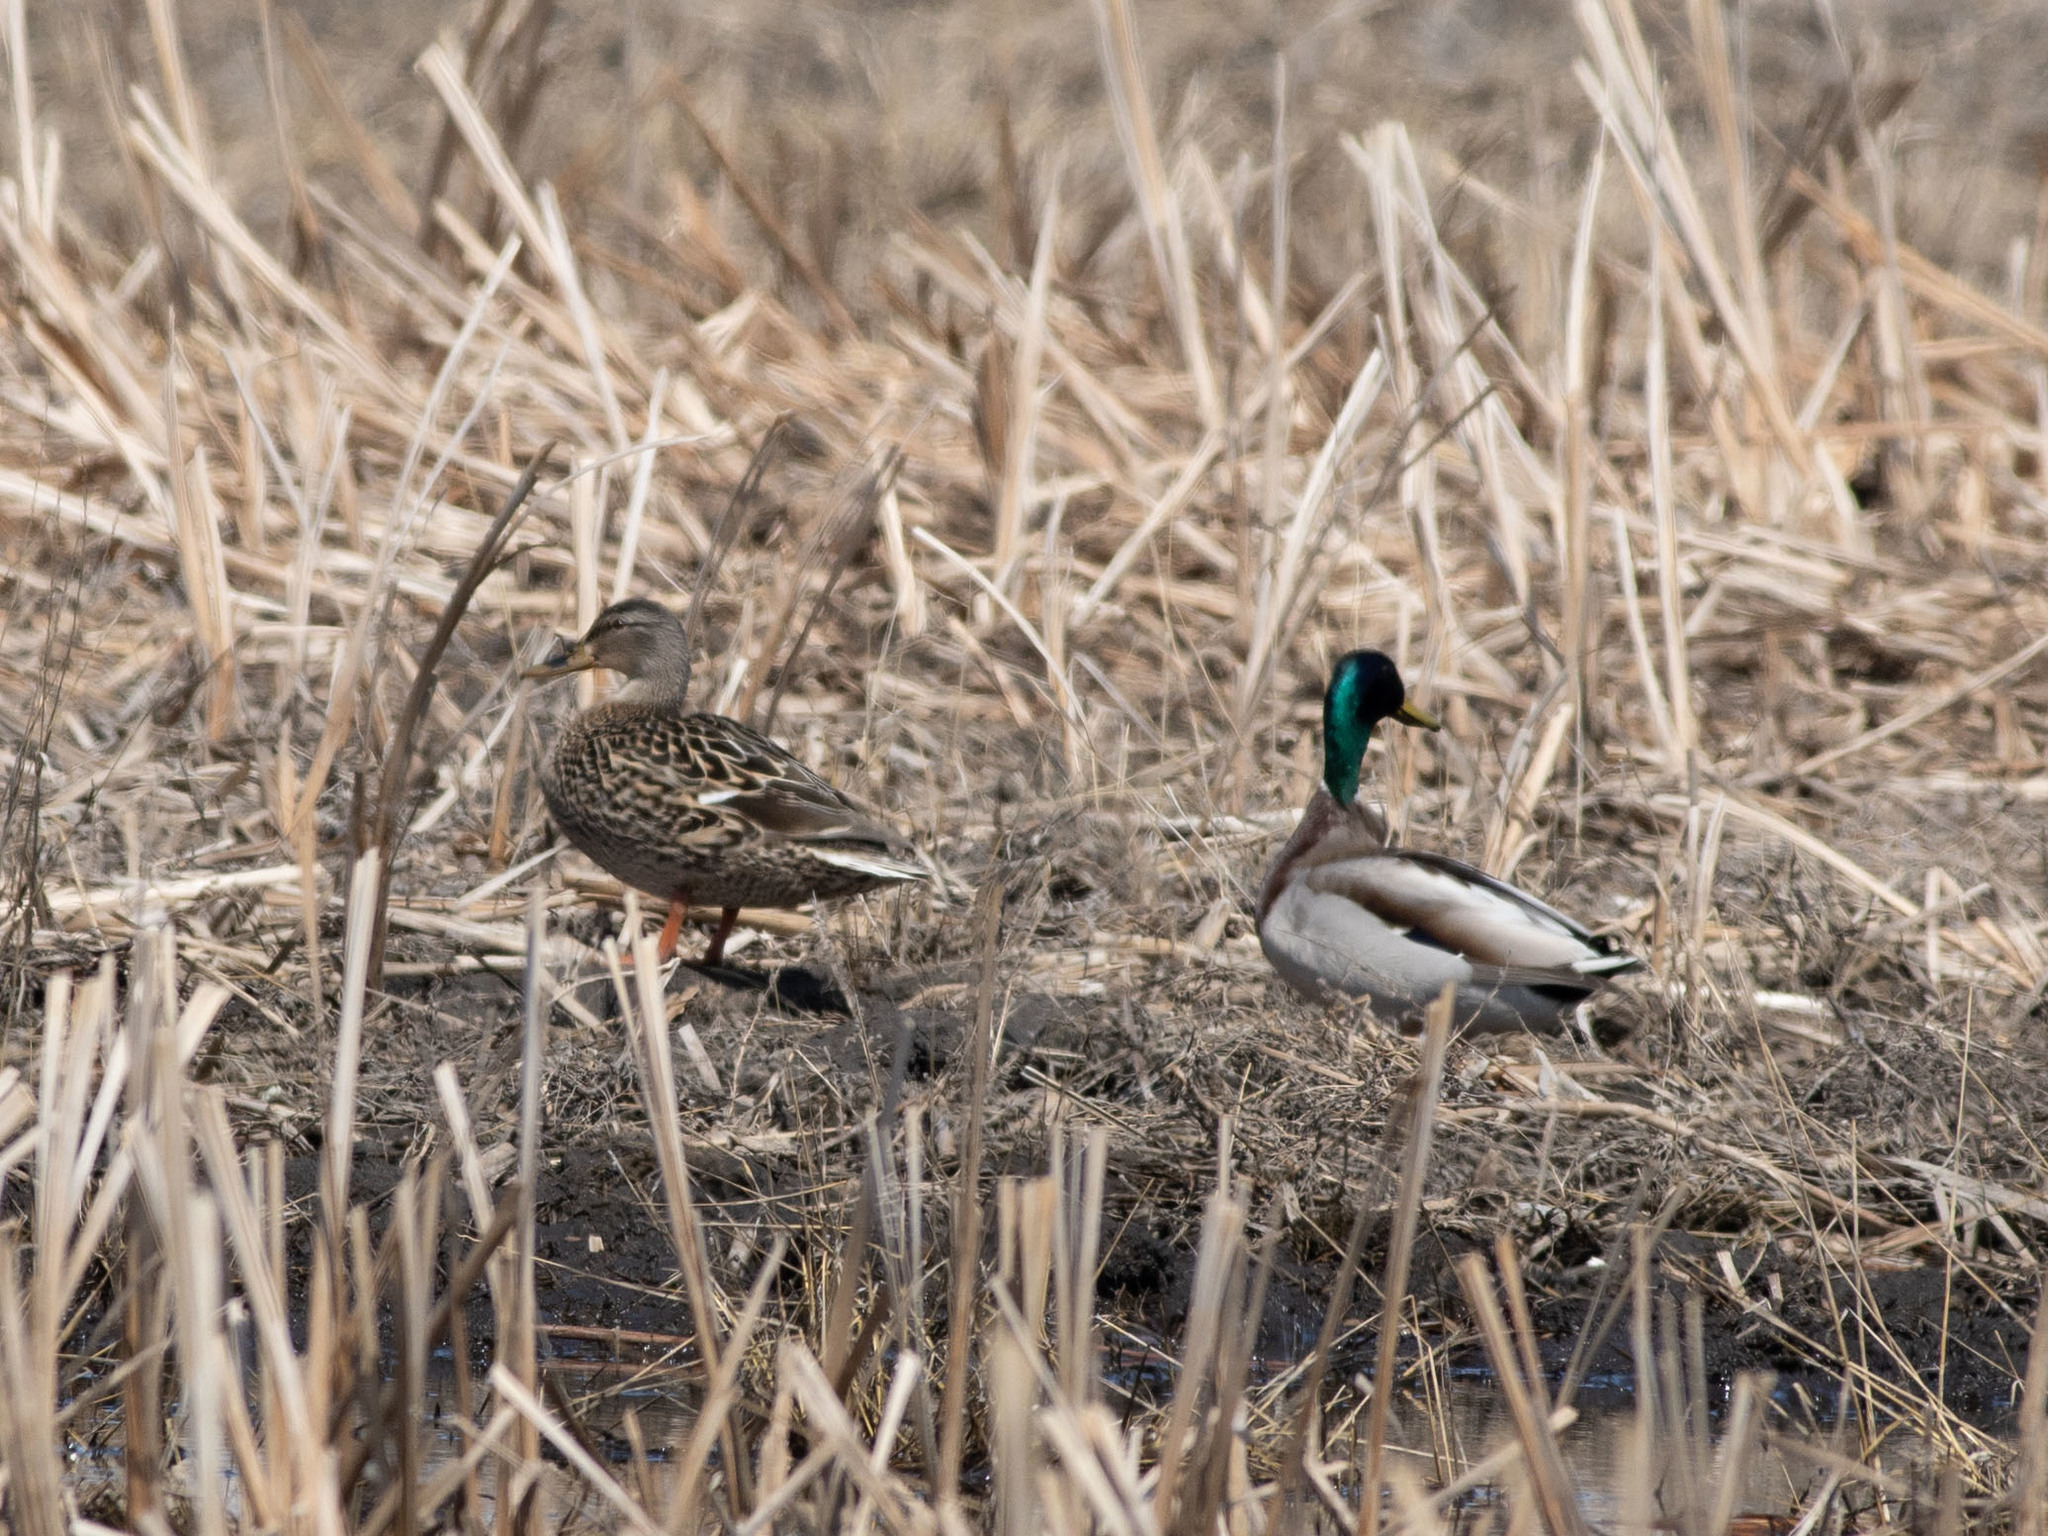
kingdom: Animalia
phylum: Chordata
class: Aves
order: Anseriformes
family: Anatidae
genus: Anas
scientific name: Anas platyrhynchos
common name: Mallard
